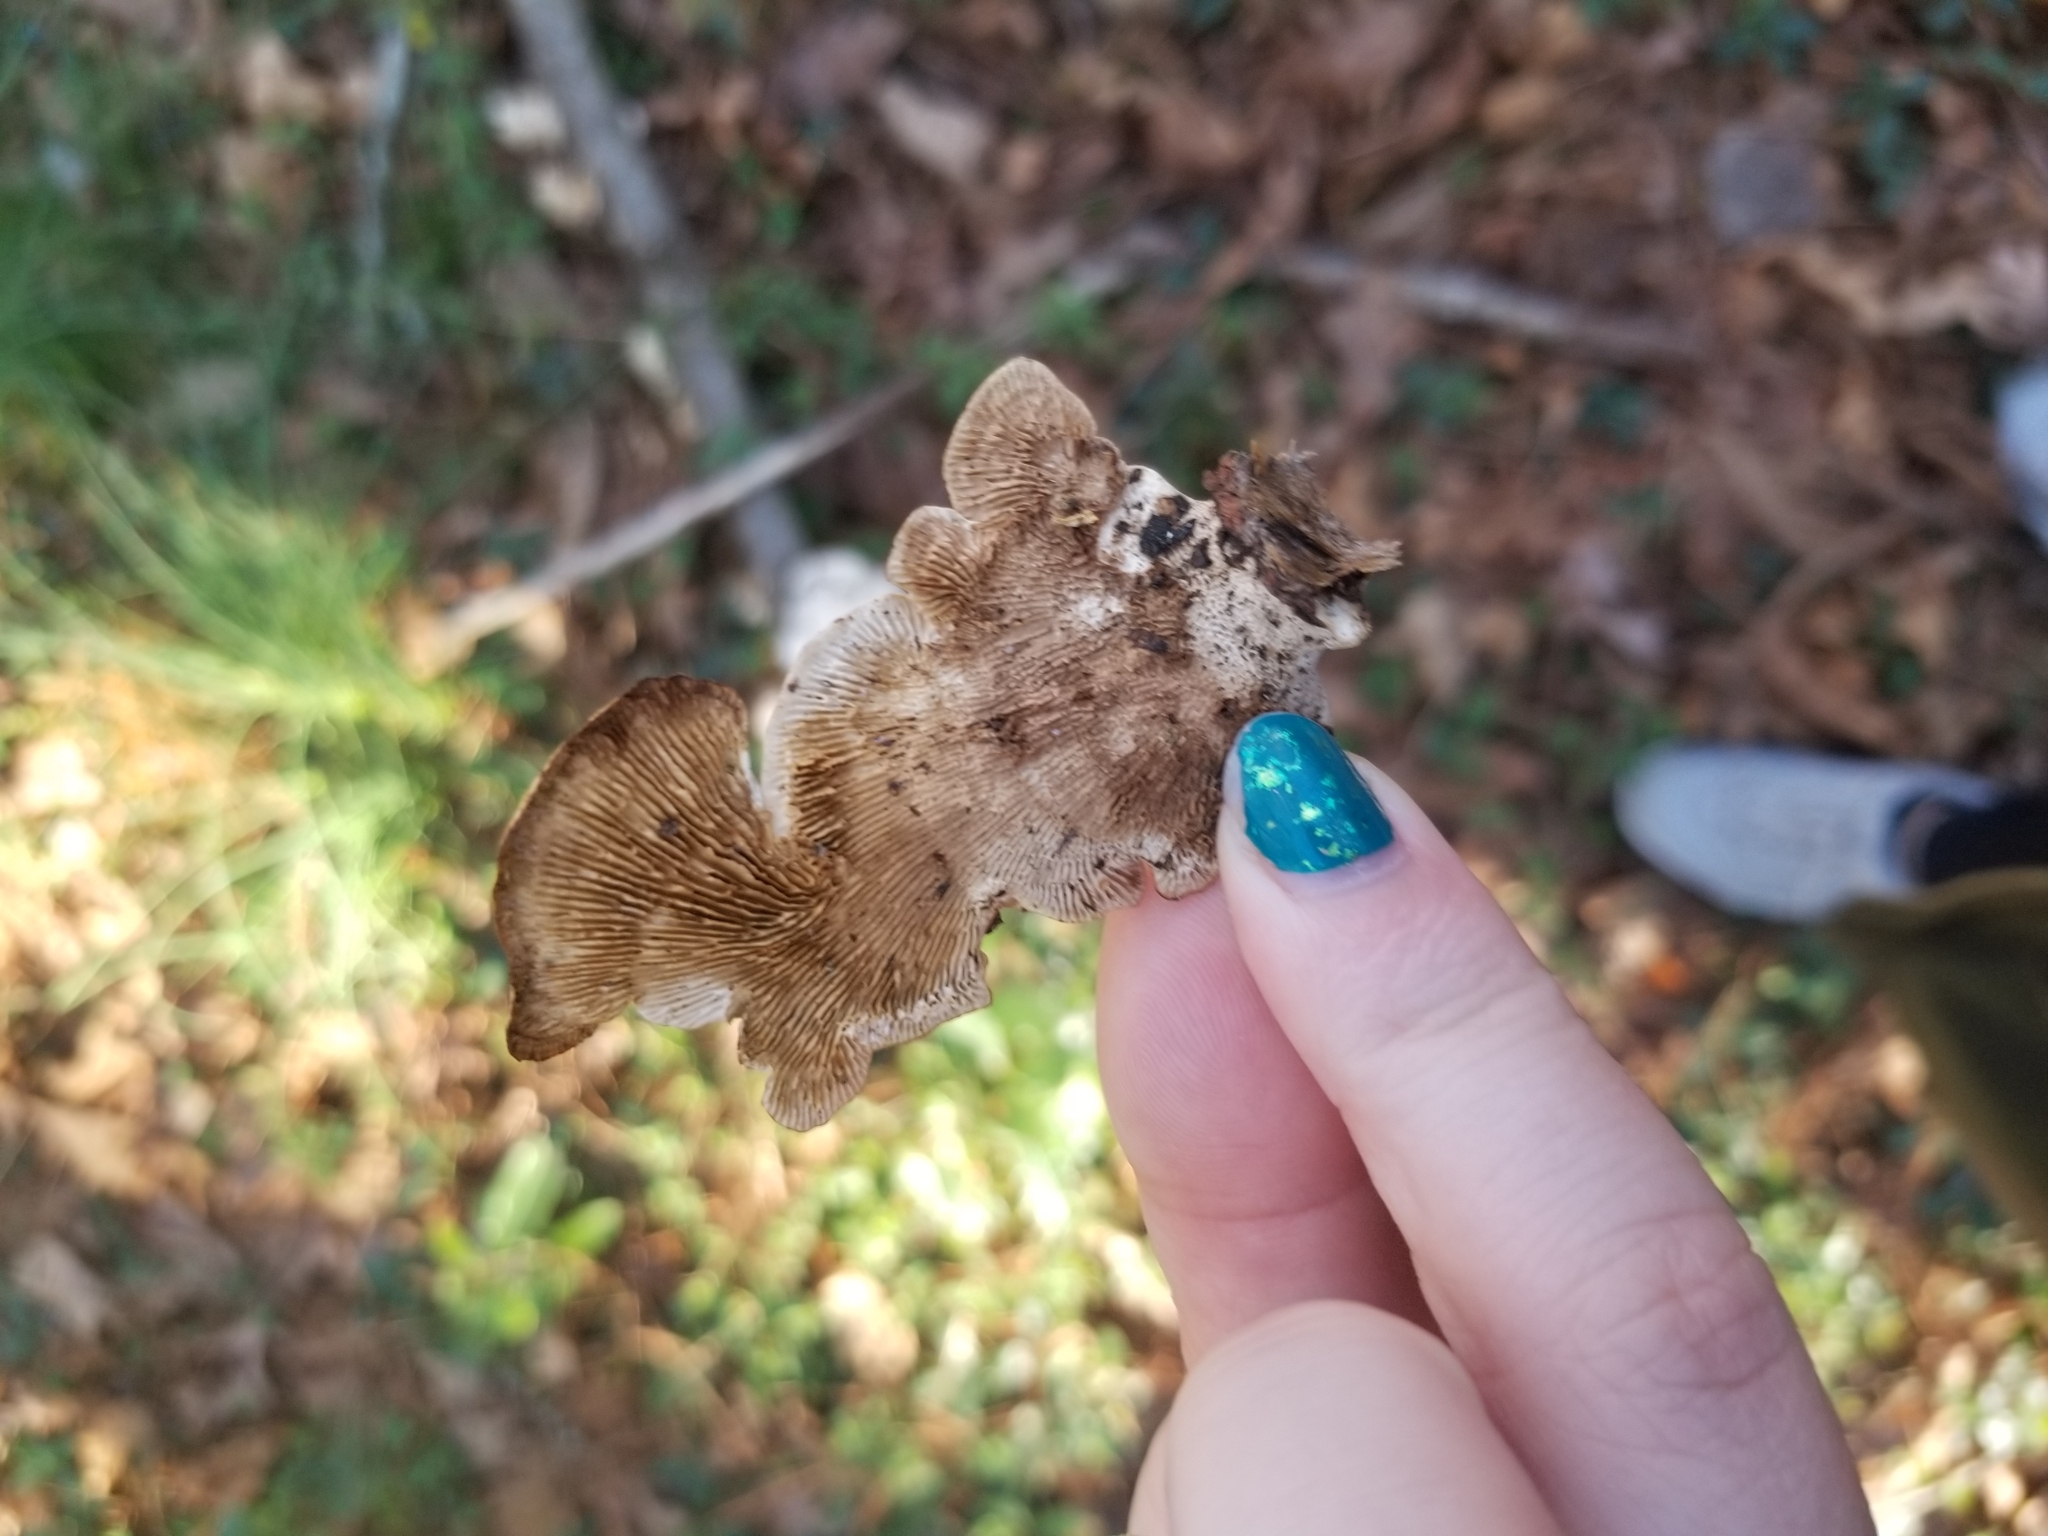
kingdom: Fungi
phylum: Basidiomycota
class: Agaricomycetes
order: Polyporales
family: Polyporaceae
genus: Lenzites
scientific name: Lenzites betulinus
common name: Birch mazegill
